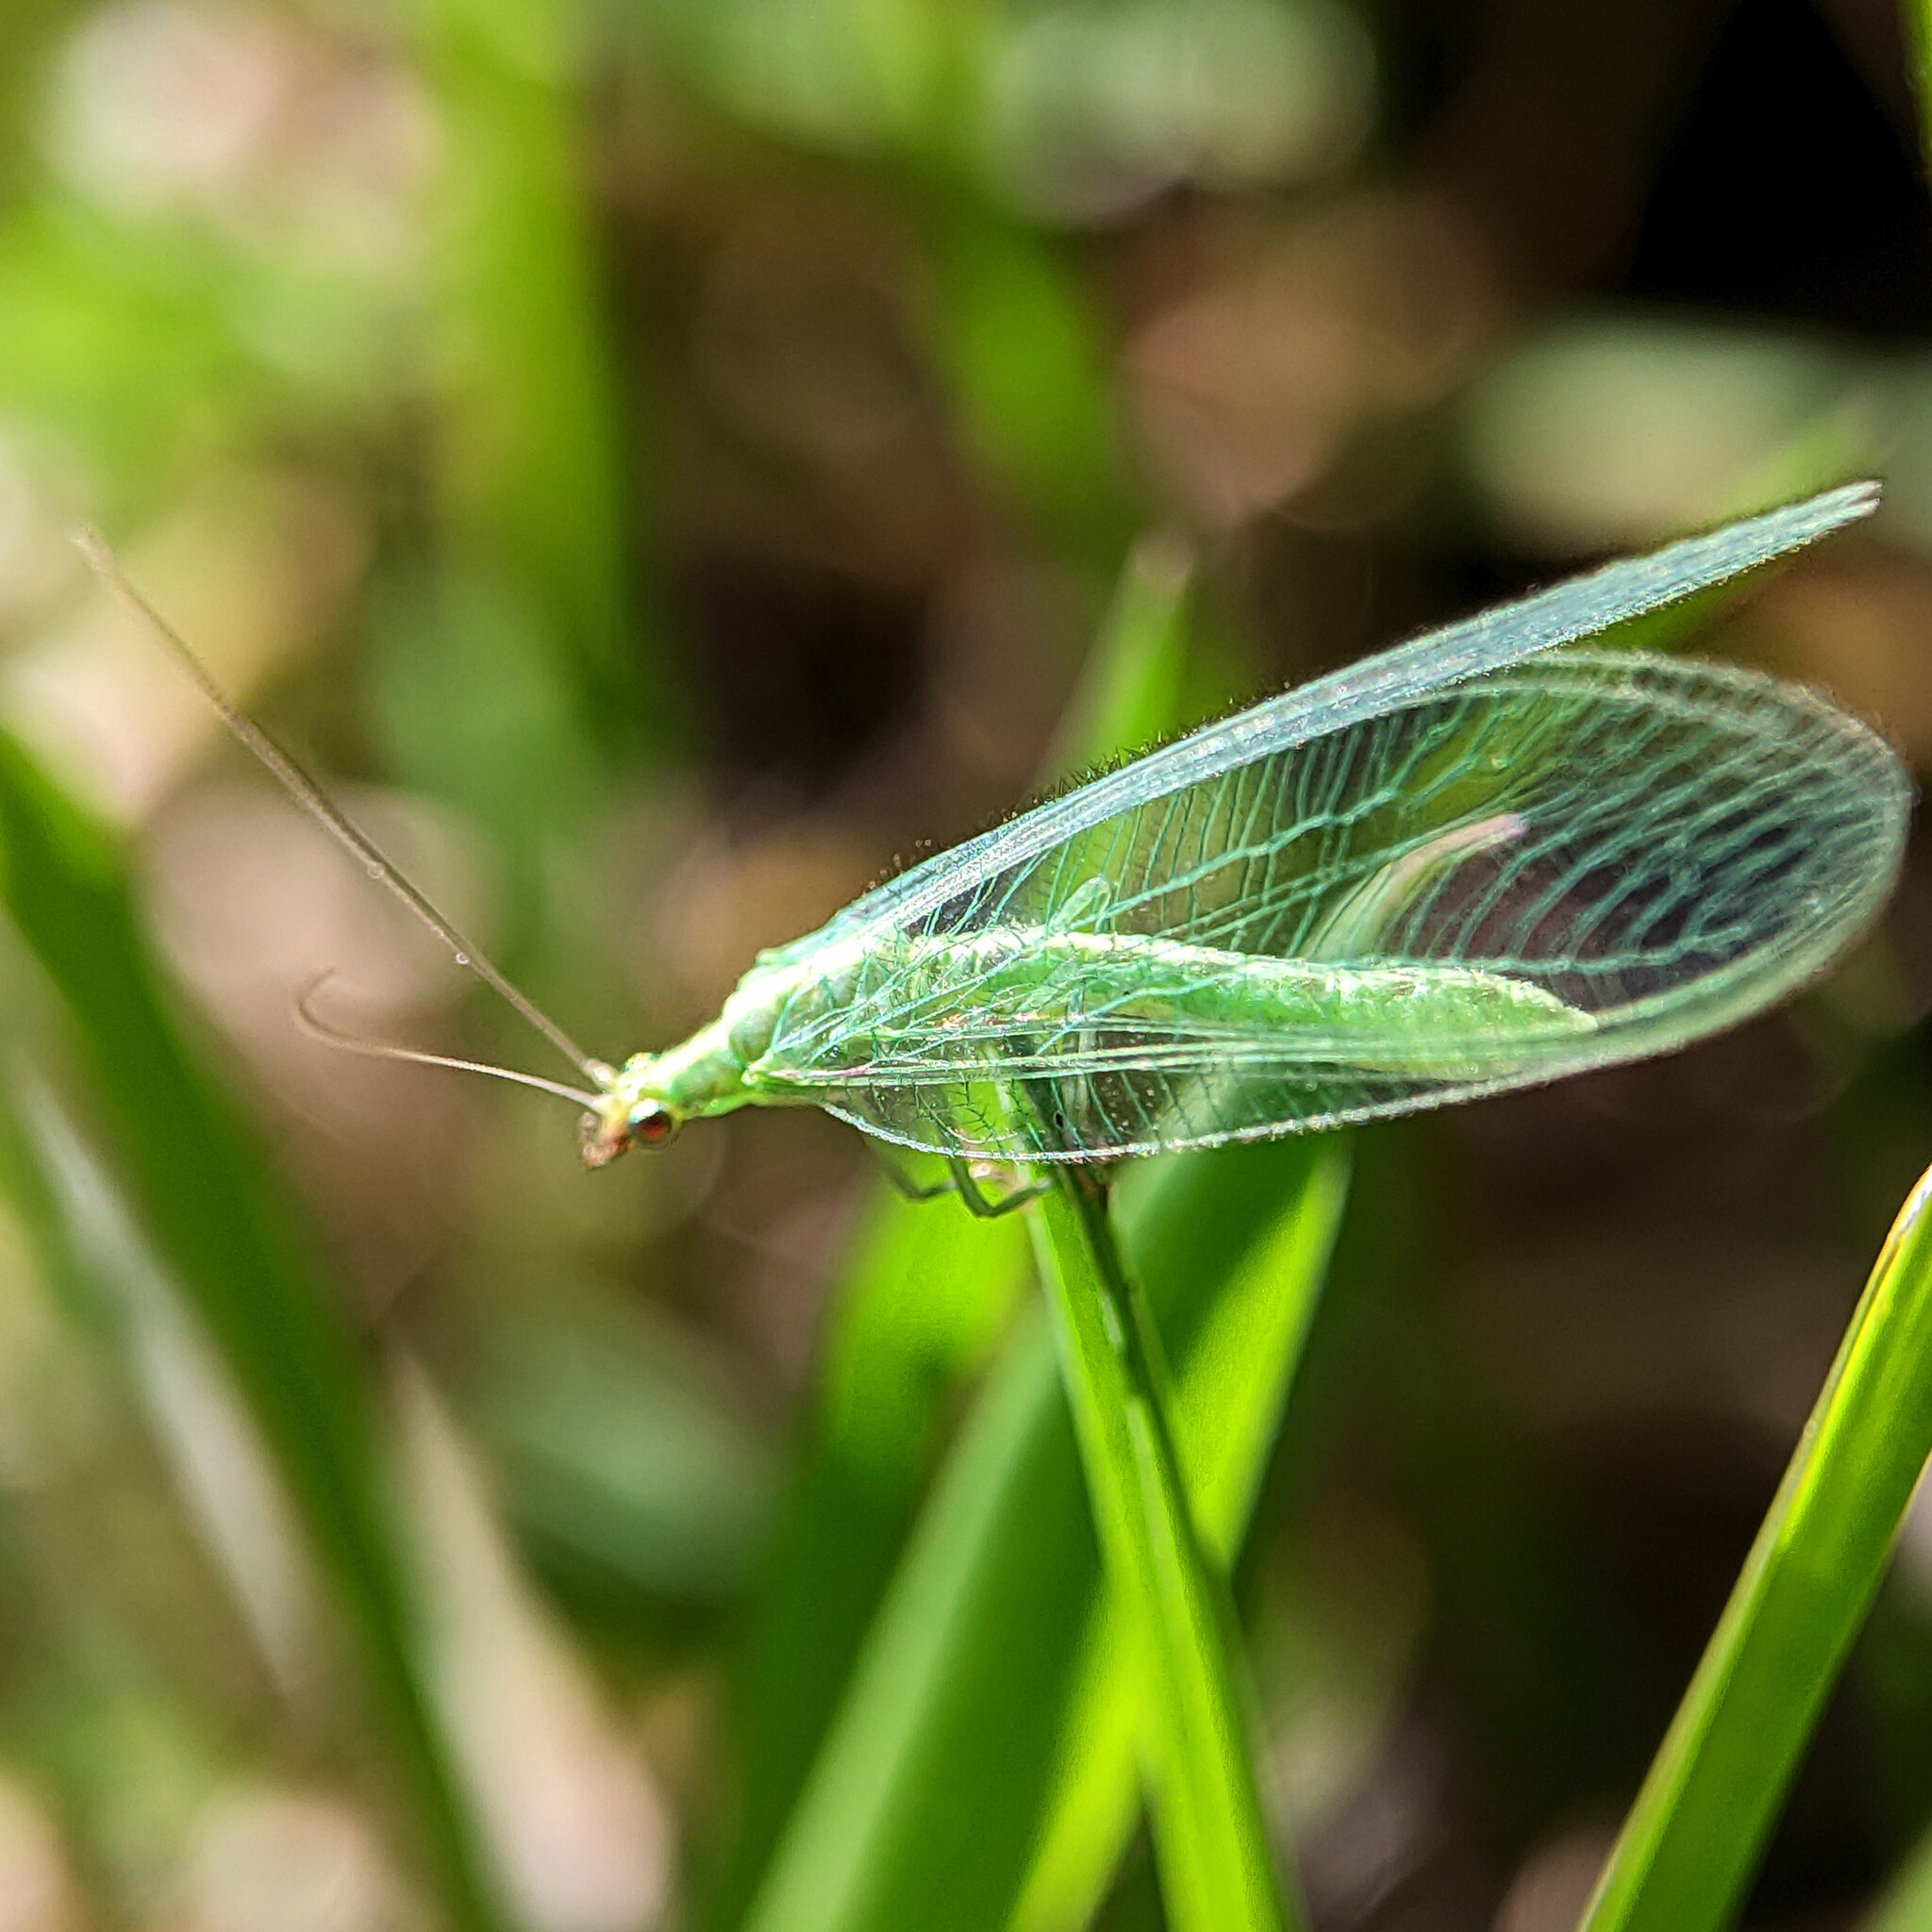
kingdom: Animalia
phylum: Arthropoda
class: Insecta
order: Neuroptera
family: Chrysopidae
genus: Chrysoperla
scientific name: Chrysoperla
